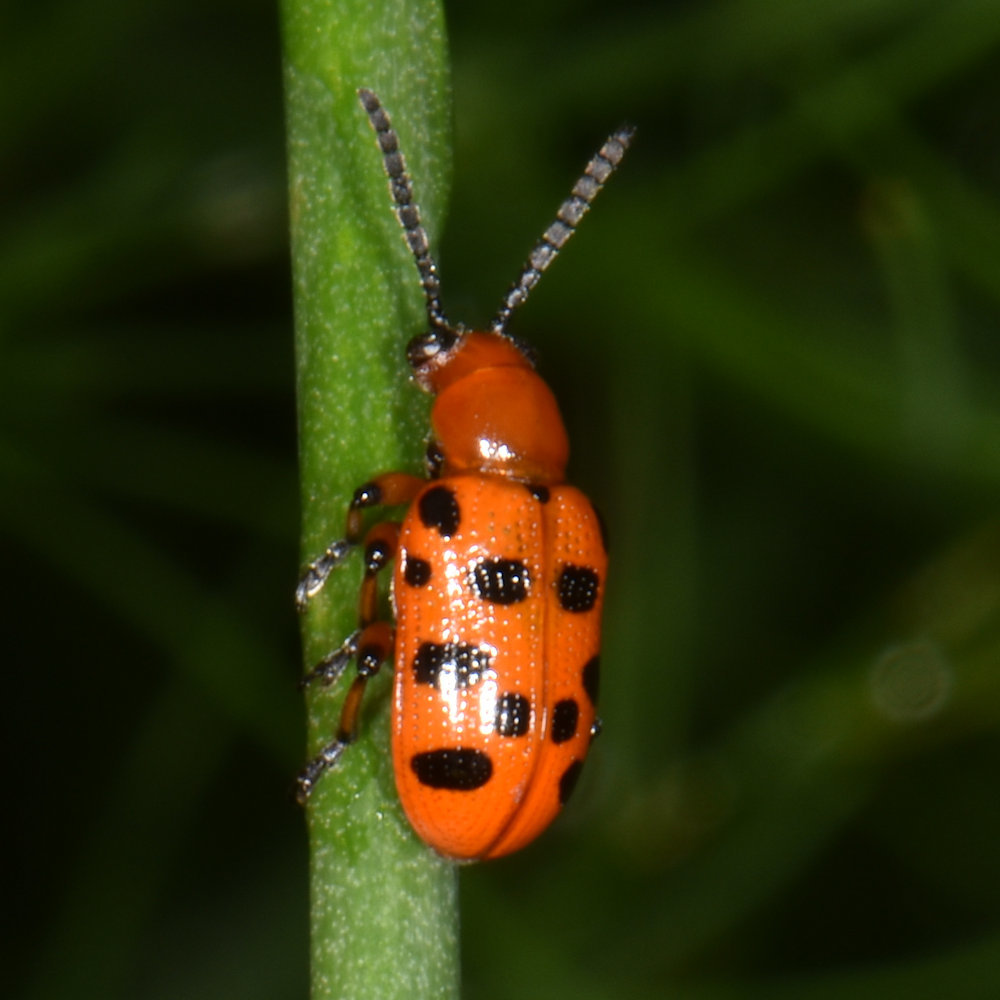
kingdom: Animalia
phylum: Arthropoda
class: Insecta
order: Coleoptera
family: Chrysomelidae
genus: Crioceris
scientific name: Crioceris duodecimpunctata
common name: Twelve-spotted asparagus beetle
